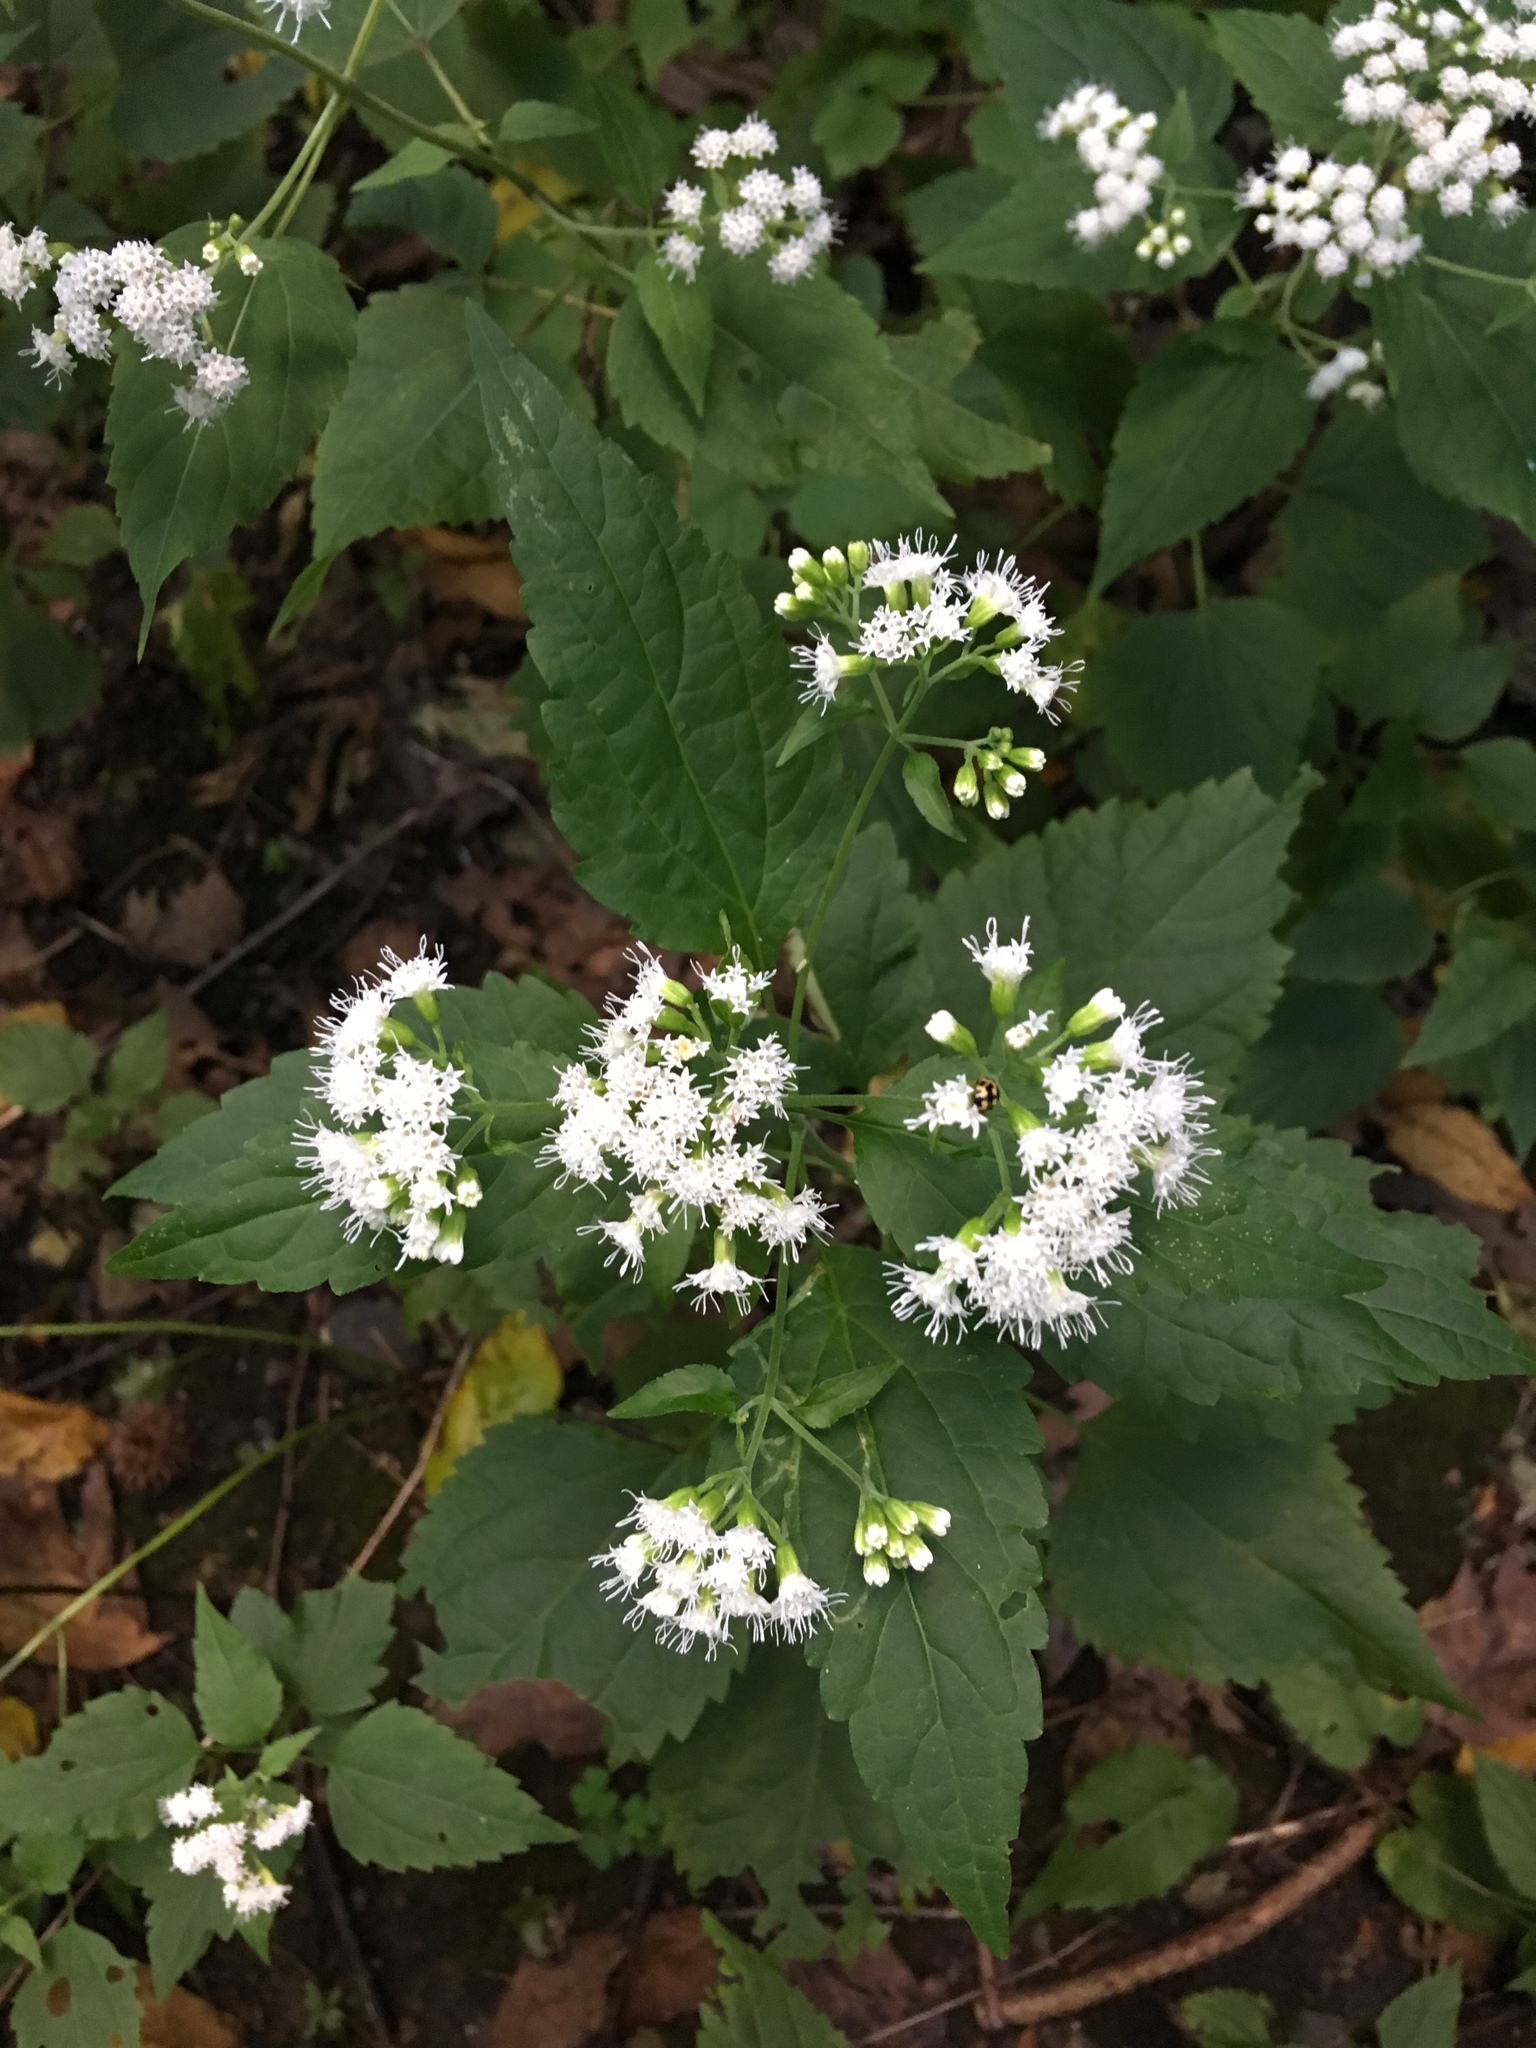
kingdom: Plantae
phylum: Tracheophyta
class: Magnoliopsida
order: Asterales
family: Asteraceae
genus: Ageratina
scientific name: Ageratina altissima
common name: White snakeroot
